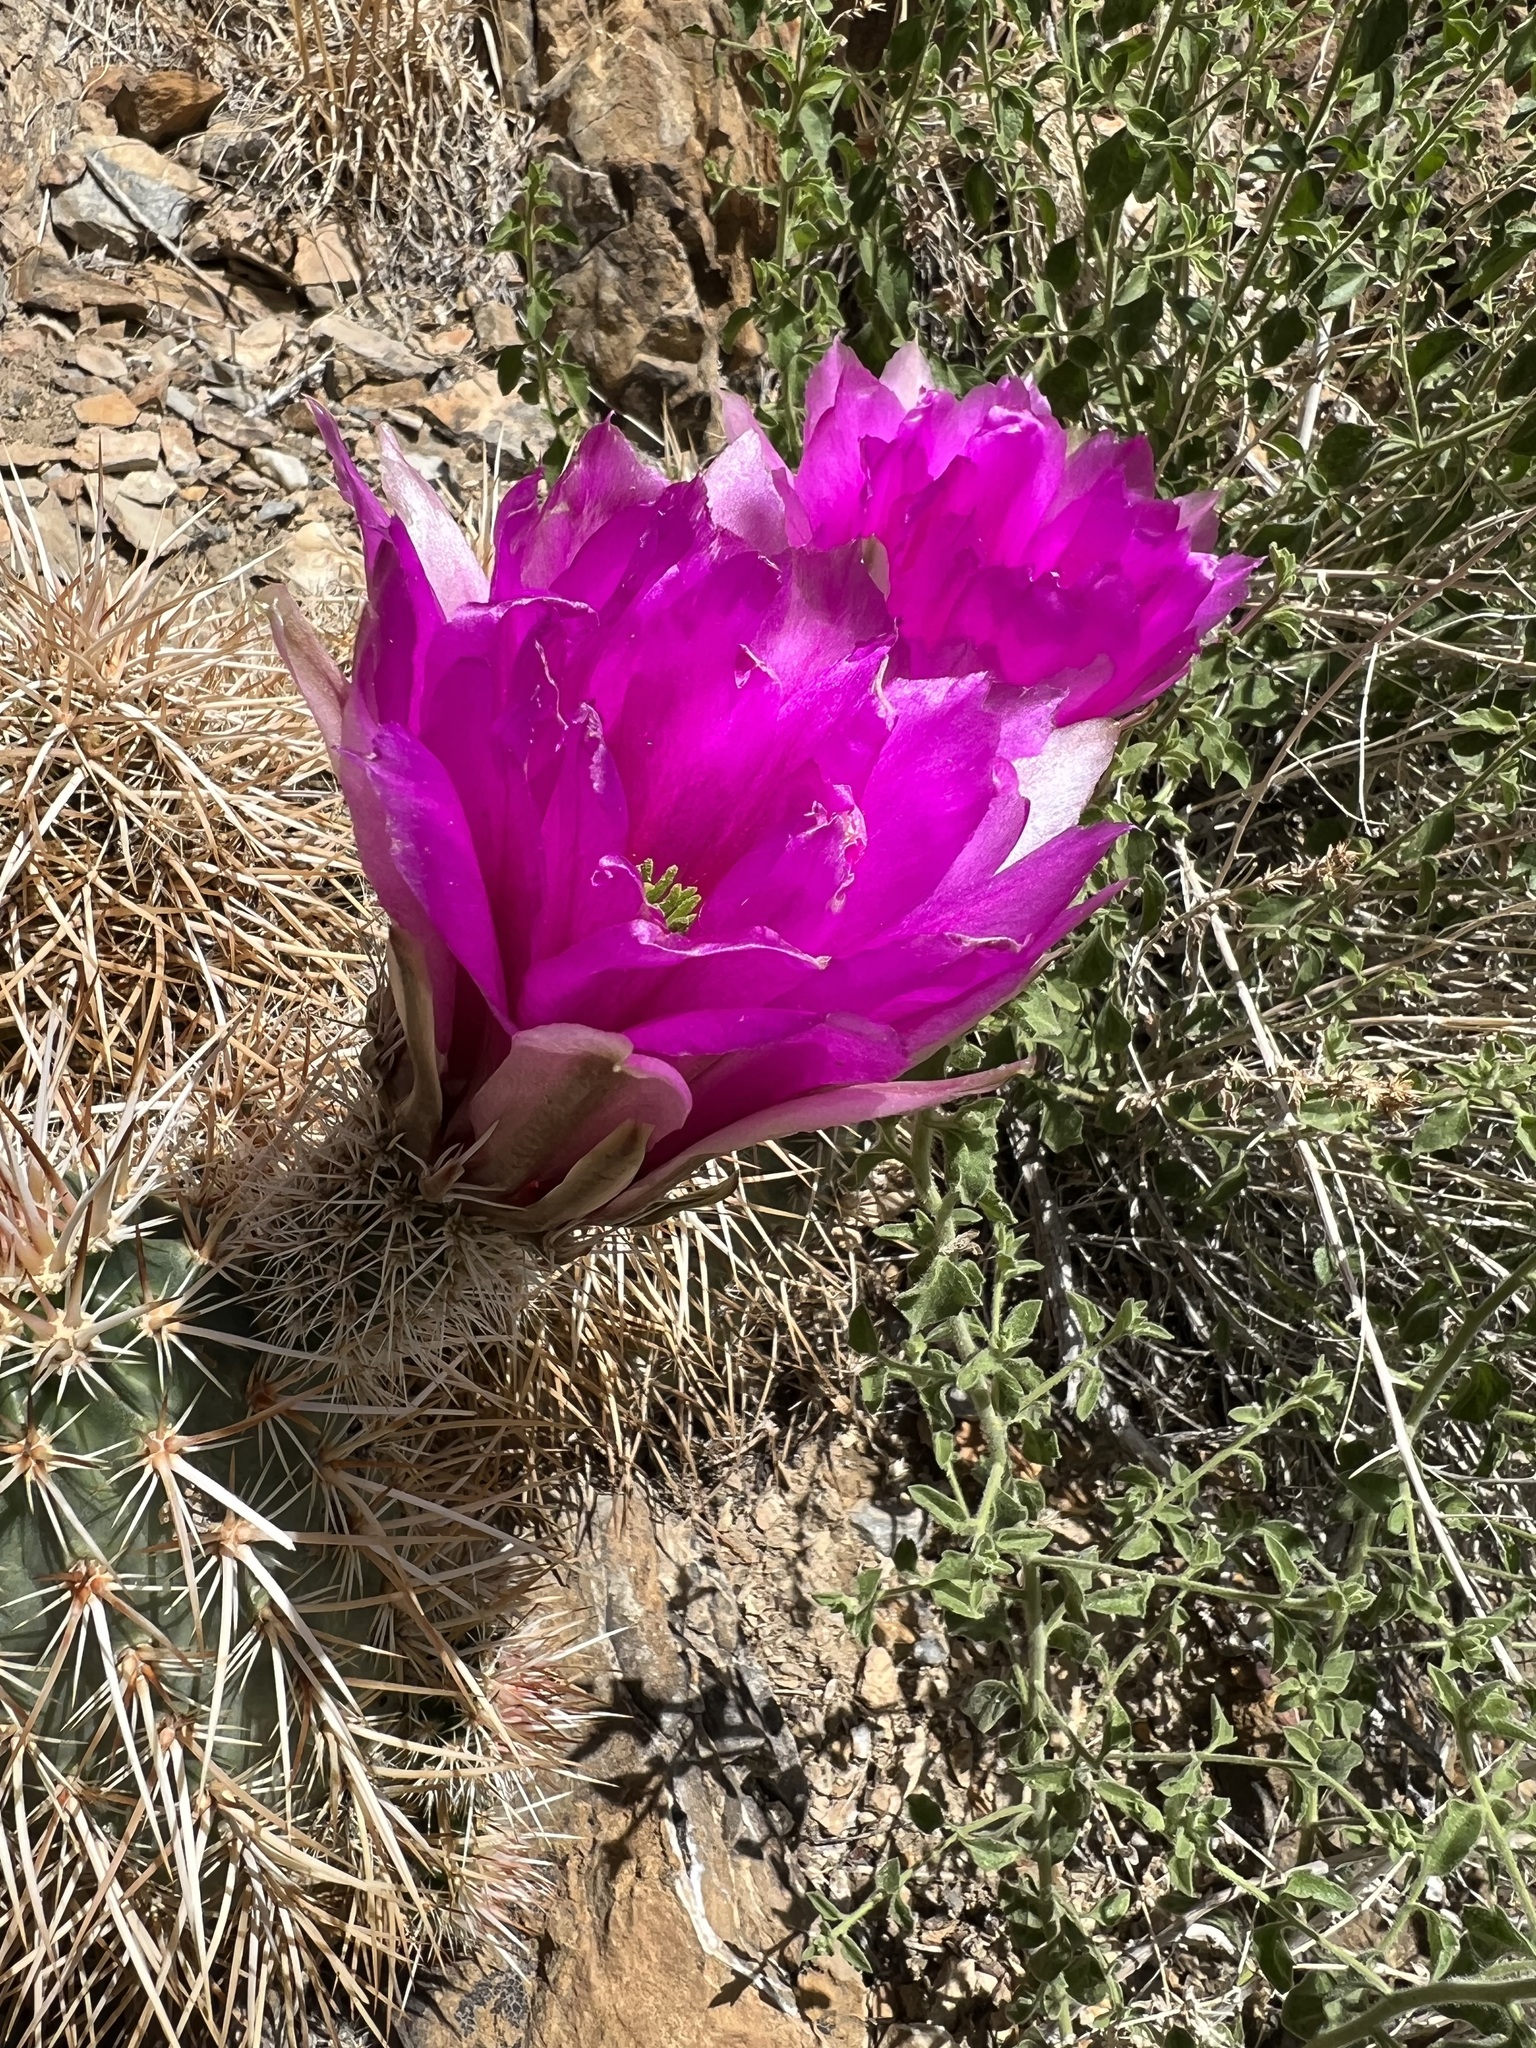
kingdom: Plantae
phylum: Tracheophyta
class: Magnoliopsida
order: Caryophyllales
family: Cactaceae
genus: Echinocereus
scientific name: Echinocereus engelmannii
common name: Engelmann's hedgehog cactus
